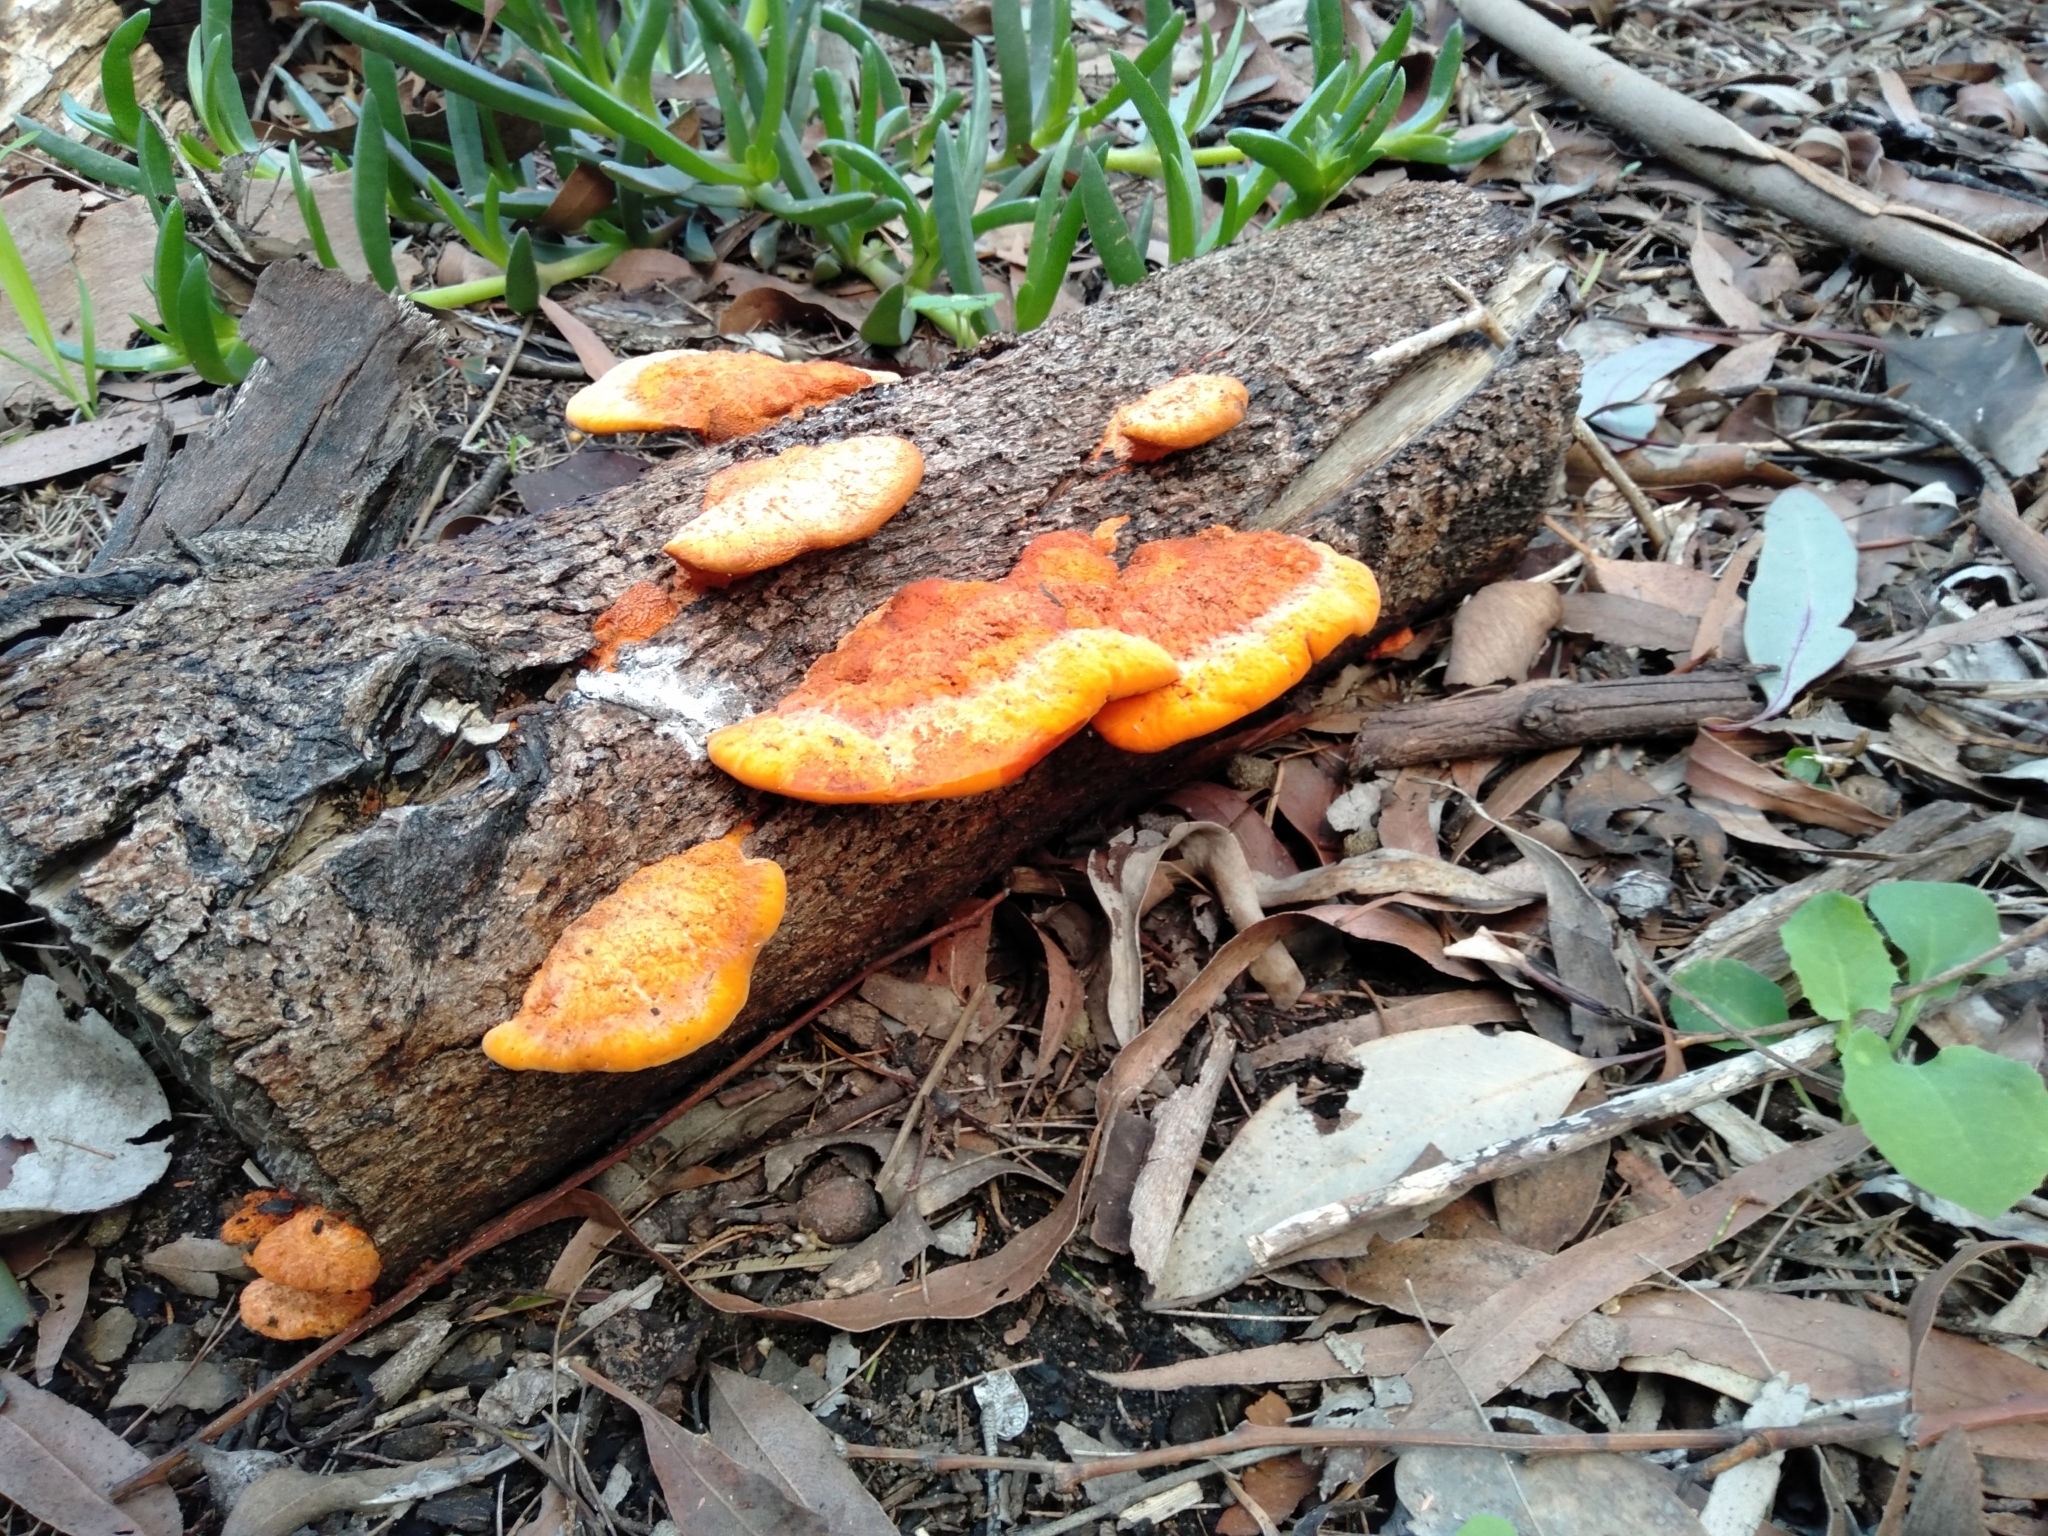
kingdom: Fungi
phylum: Basidiomycota
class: Agaricomycetes
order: Polyporales
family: Polyporaceae
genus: Trametes
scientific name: Trametes coccinea
